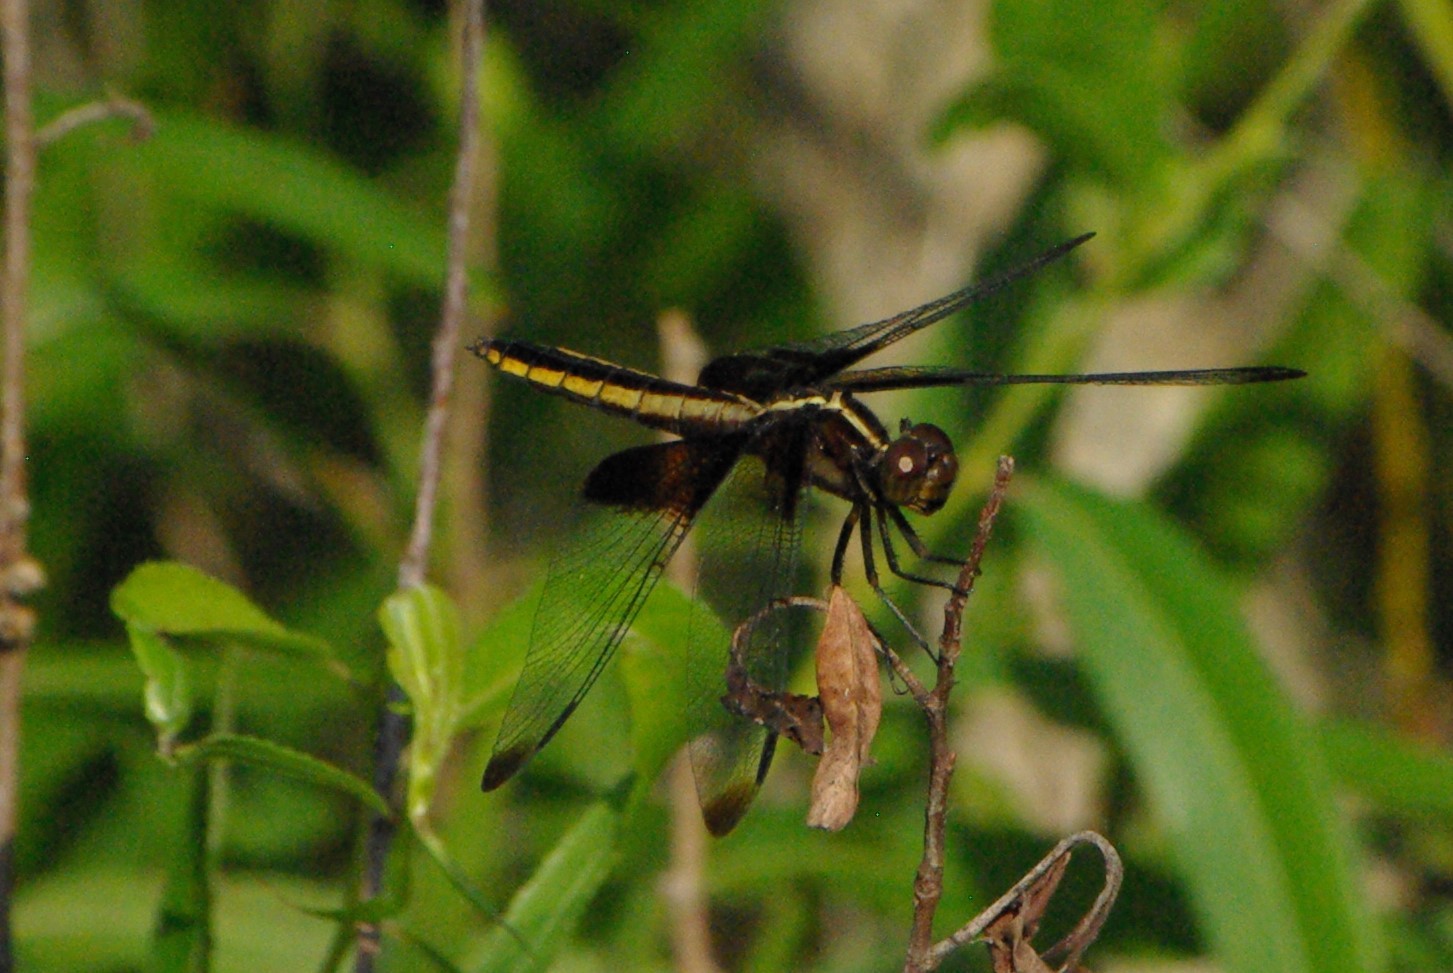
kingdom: Animalia
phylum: Arthropoda
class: Insecta
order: Odonata
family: Libellulidae
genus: Libellula
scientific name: Libellula luctuosa
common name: Widow skimmer
